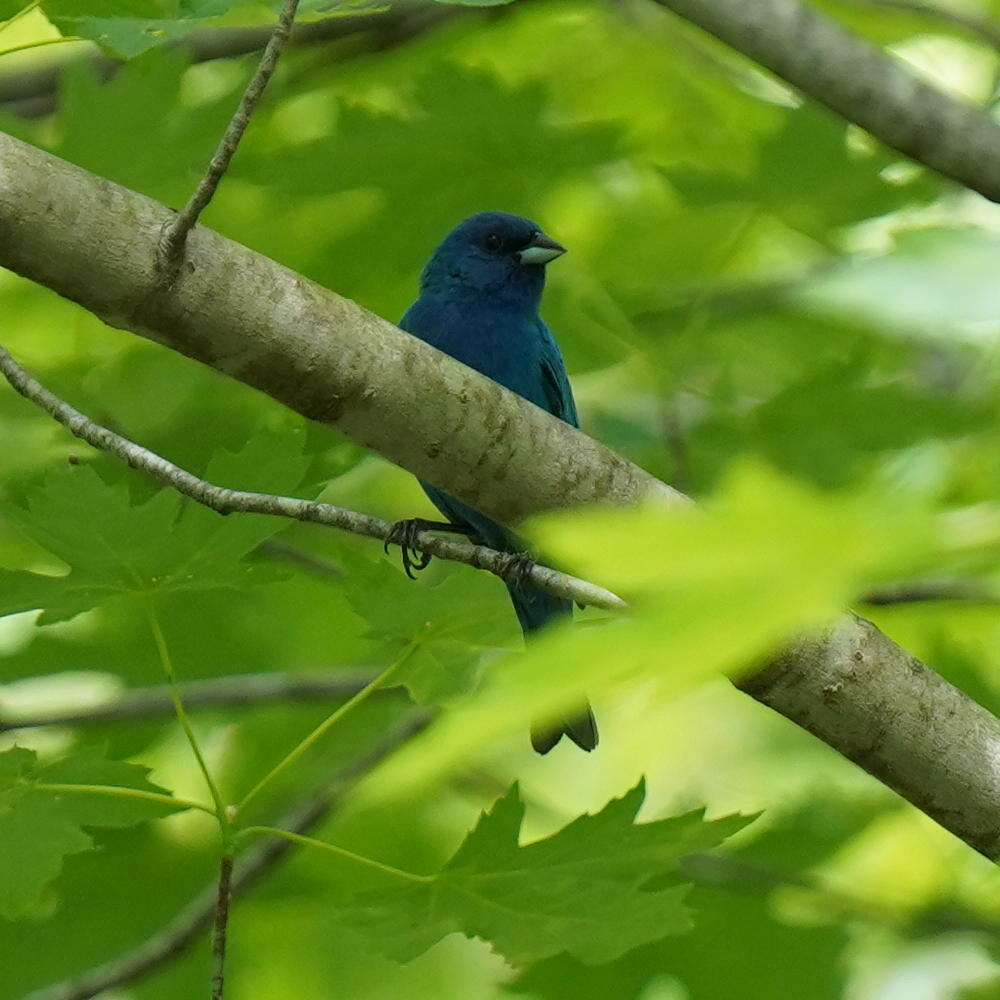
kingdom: Animalia
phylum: Chordata
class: Aves
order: Passeriformes
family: Cardinalidae
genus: Passerina
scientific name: Passerina cyanea
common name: Indigo bunting
